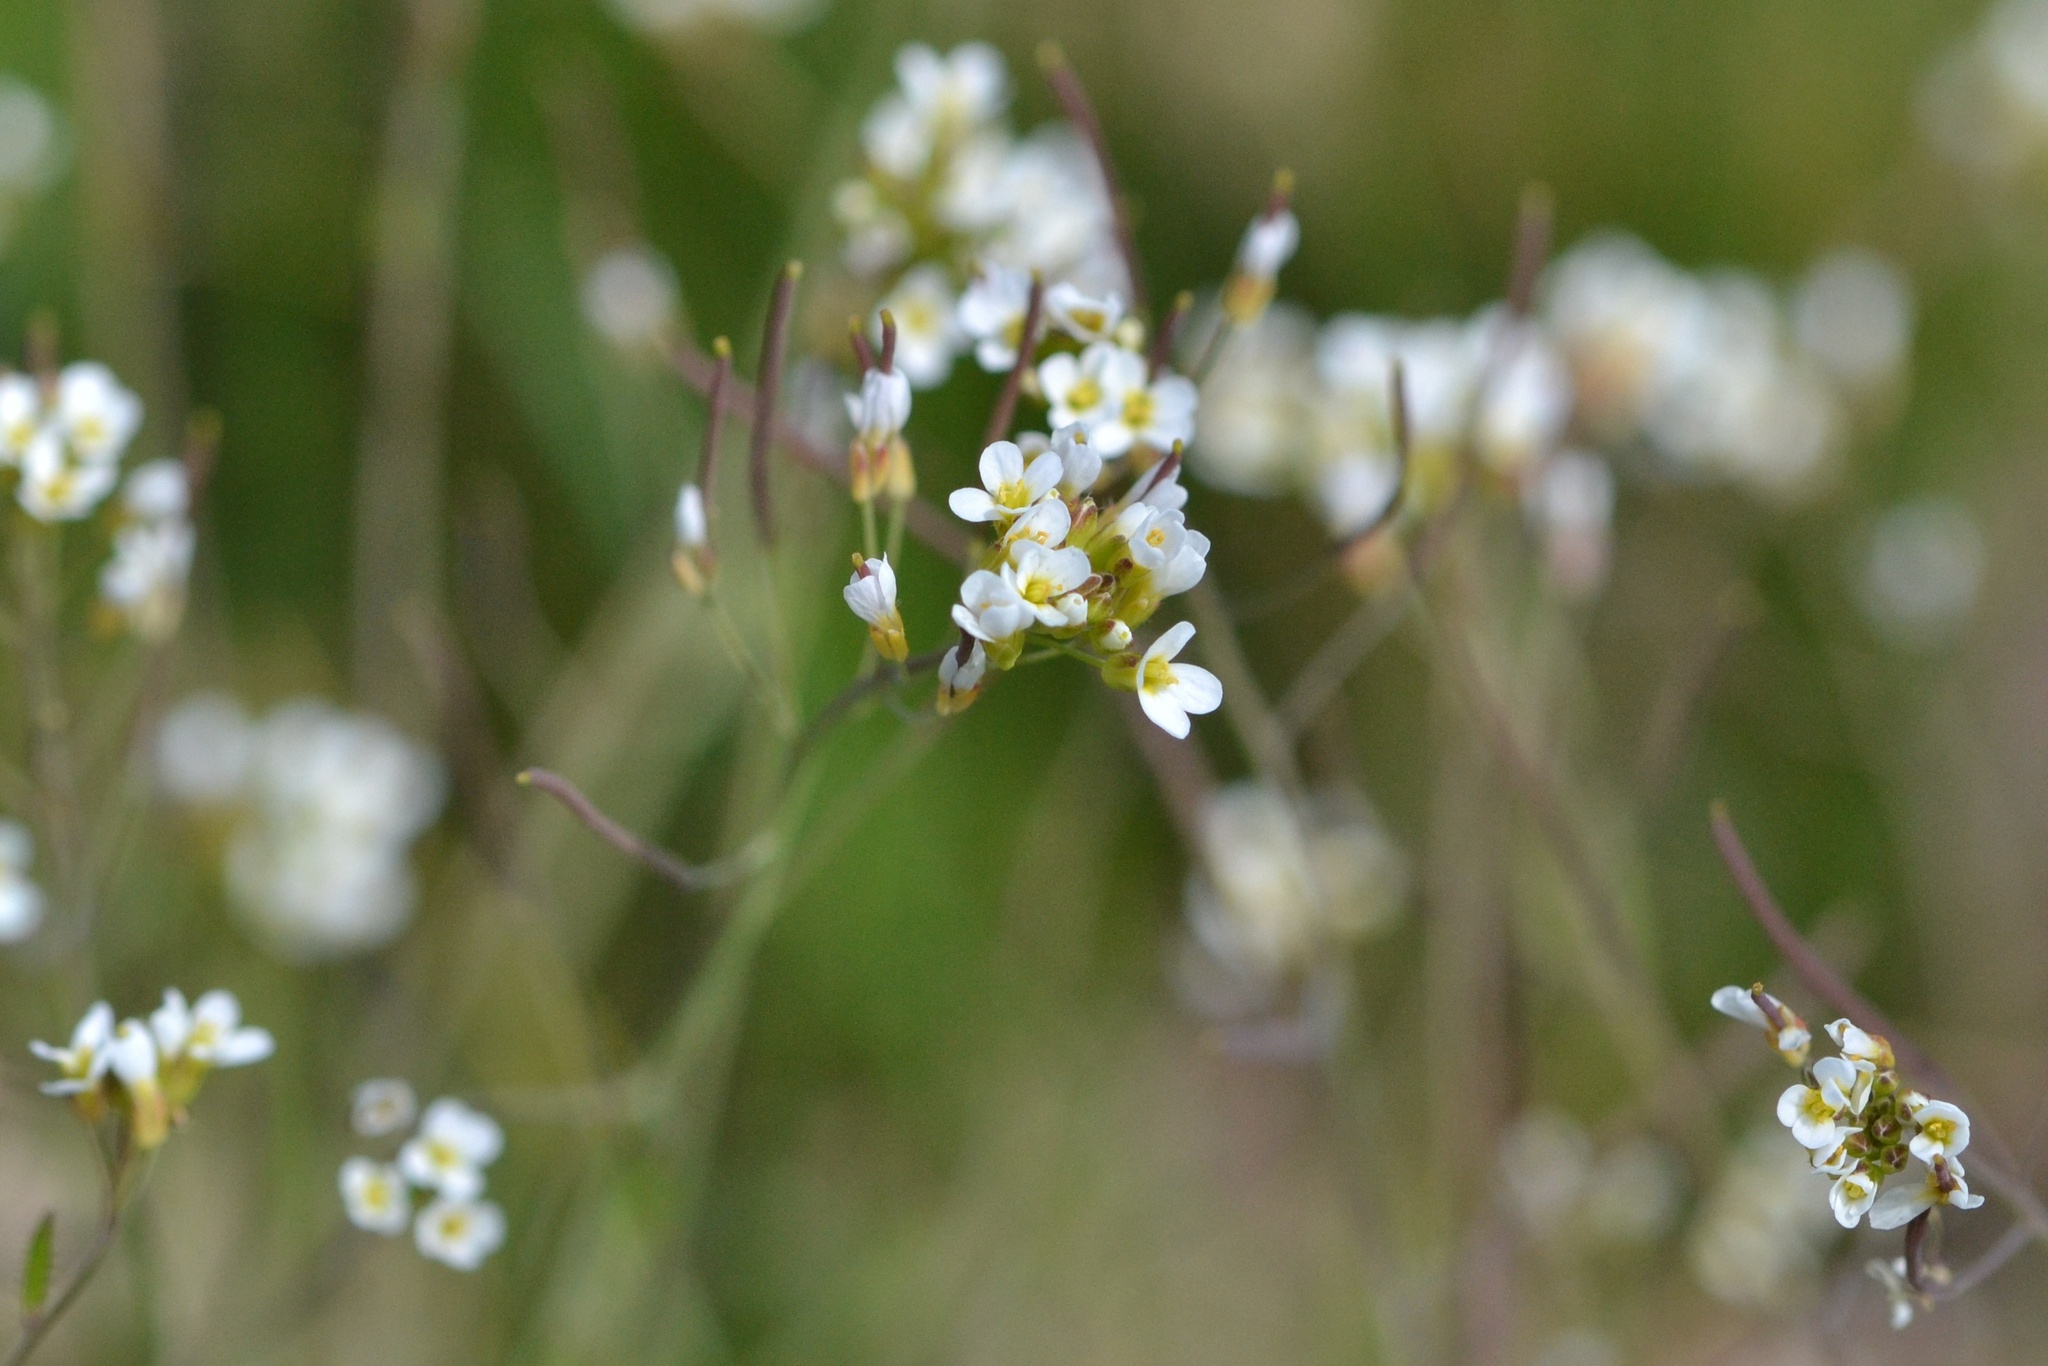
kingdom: Plantae
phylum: Tracheophyta
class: Magnoliopsida
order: Brassicales
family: Brassicaceae
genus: Arabidopsis
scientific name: Arabidopsis thaliana
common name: Thale cress
